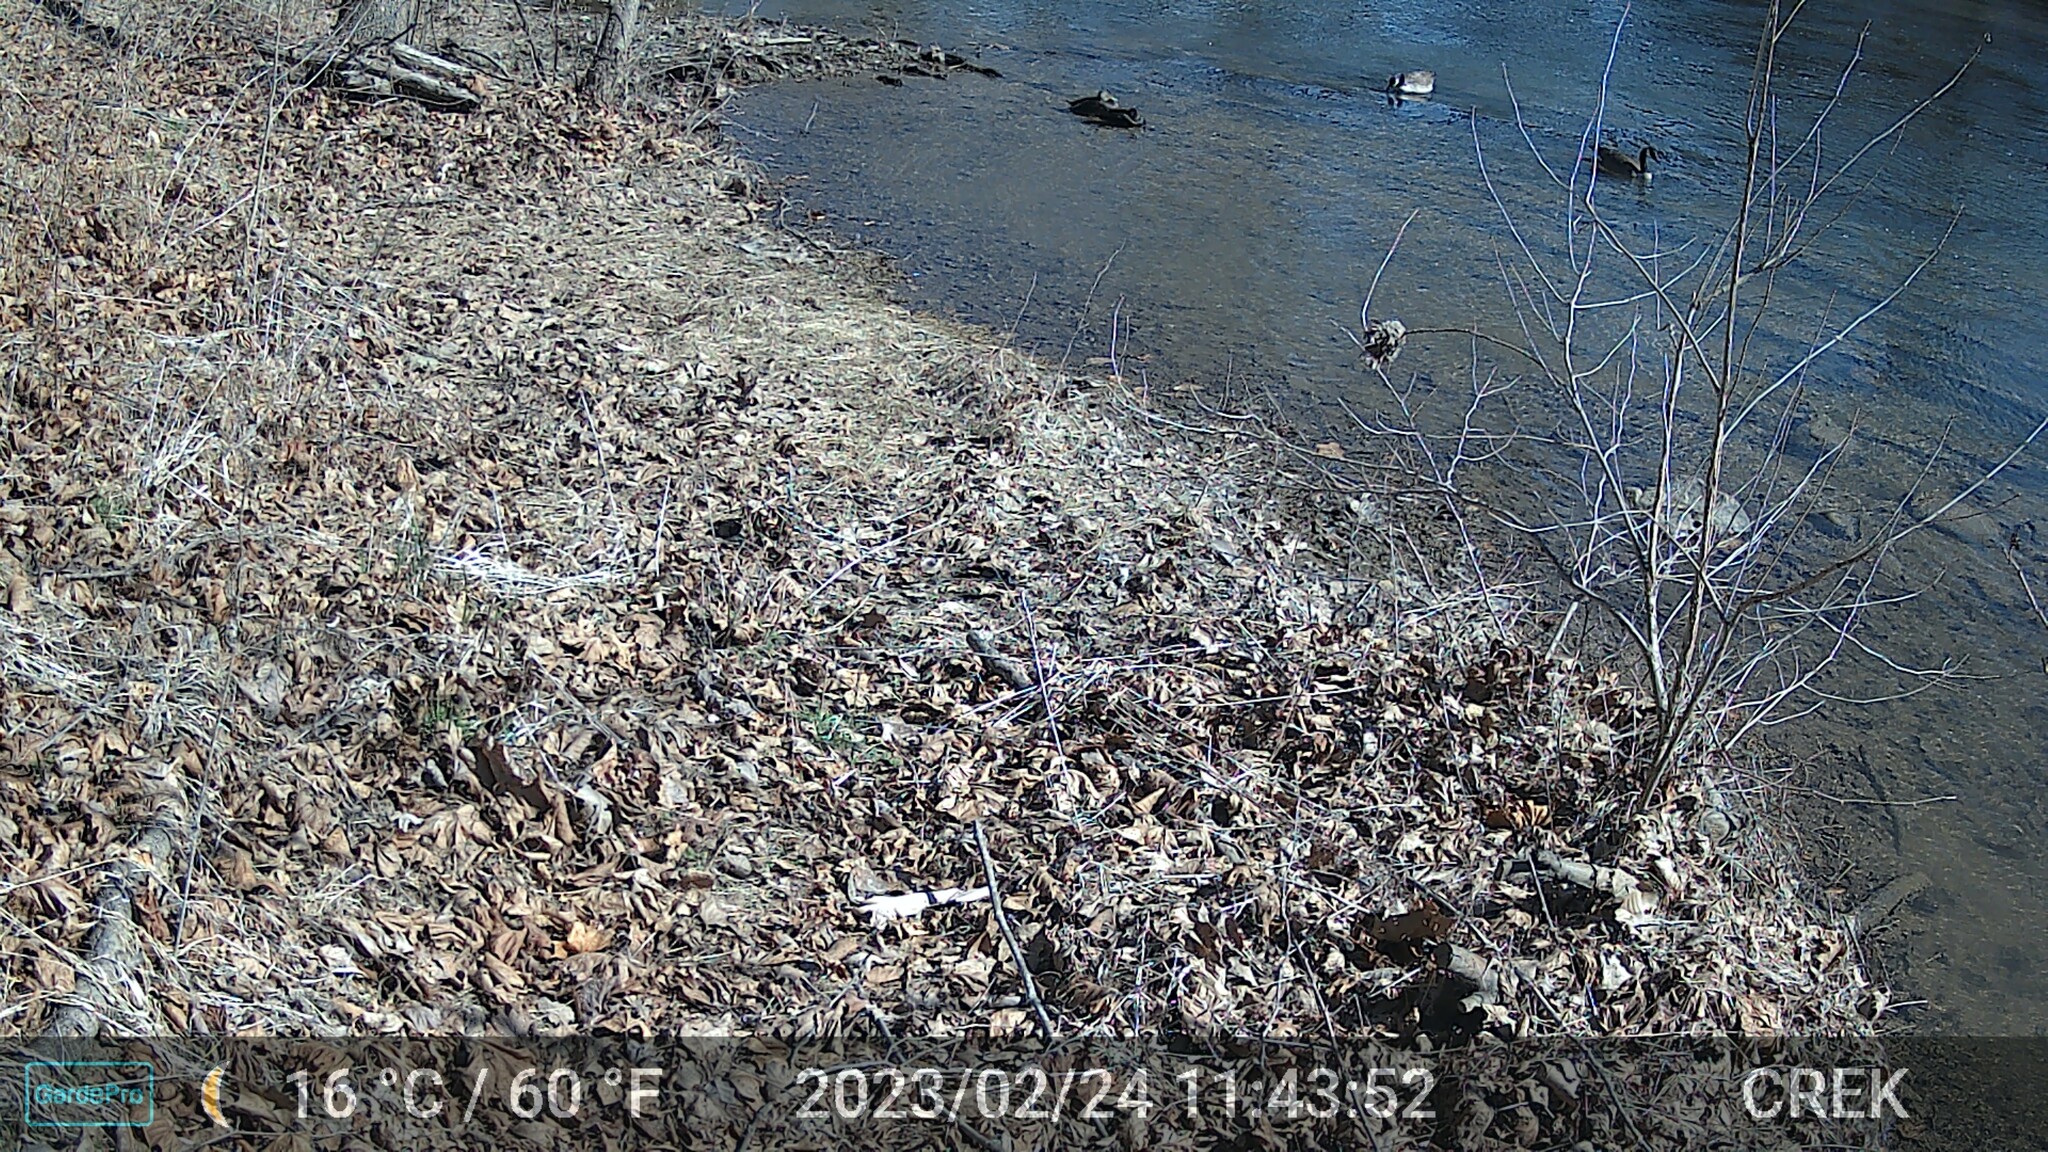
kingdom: Animalia
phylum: Chordata
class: Aves
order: Anseriformes
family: Anatidae
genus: Anas
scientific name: Anas rubripes
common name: American black duck
